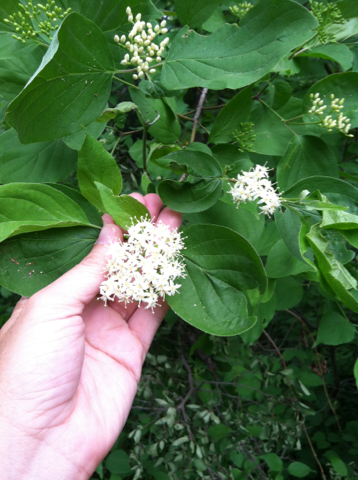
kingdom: Plantae
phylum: Tracheophyta
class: Magnoliopsida
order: Cornales
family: Cornaceae
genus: Cornus
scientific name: Cornus drummondii
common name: Rough-leaf dogwood
